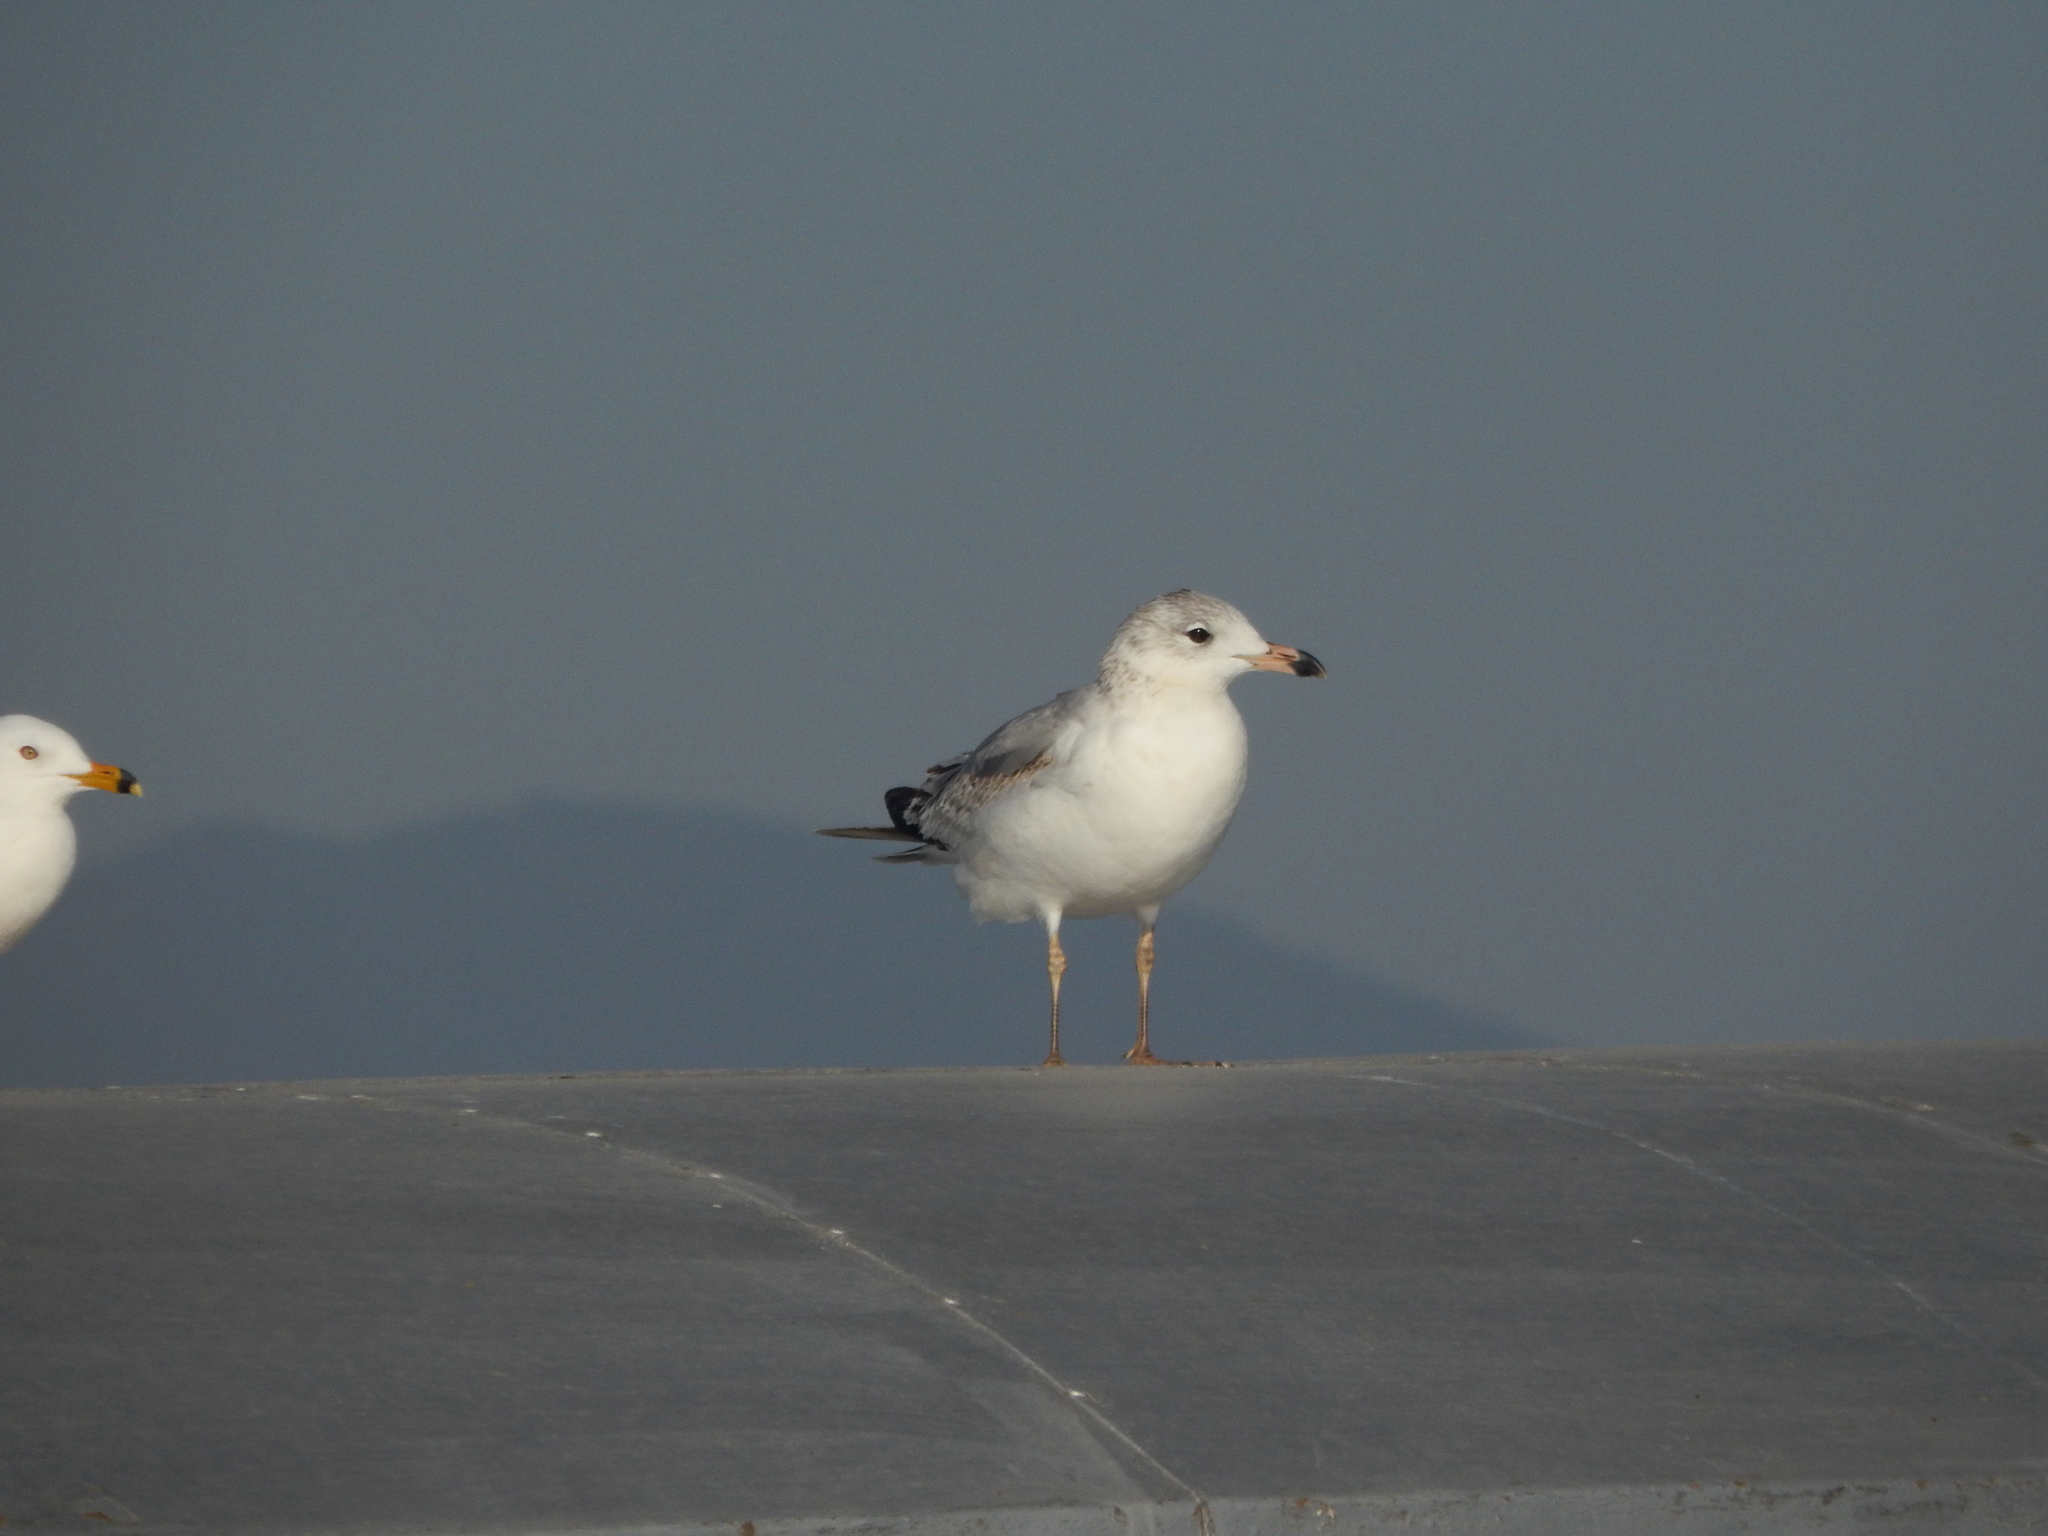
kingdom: Animalia
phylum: Chordata
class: Aves
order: Charadriiformes
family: Laridae
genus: Larus
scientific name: Larus delawarensis
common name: Ring-billed gull
